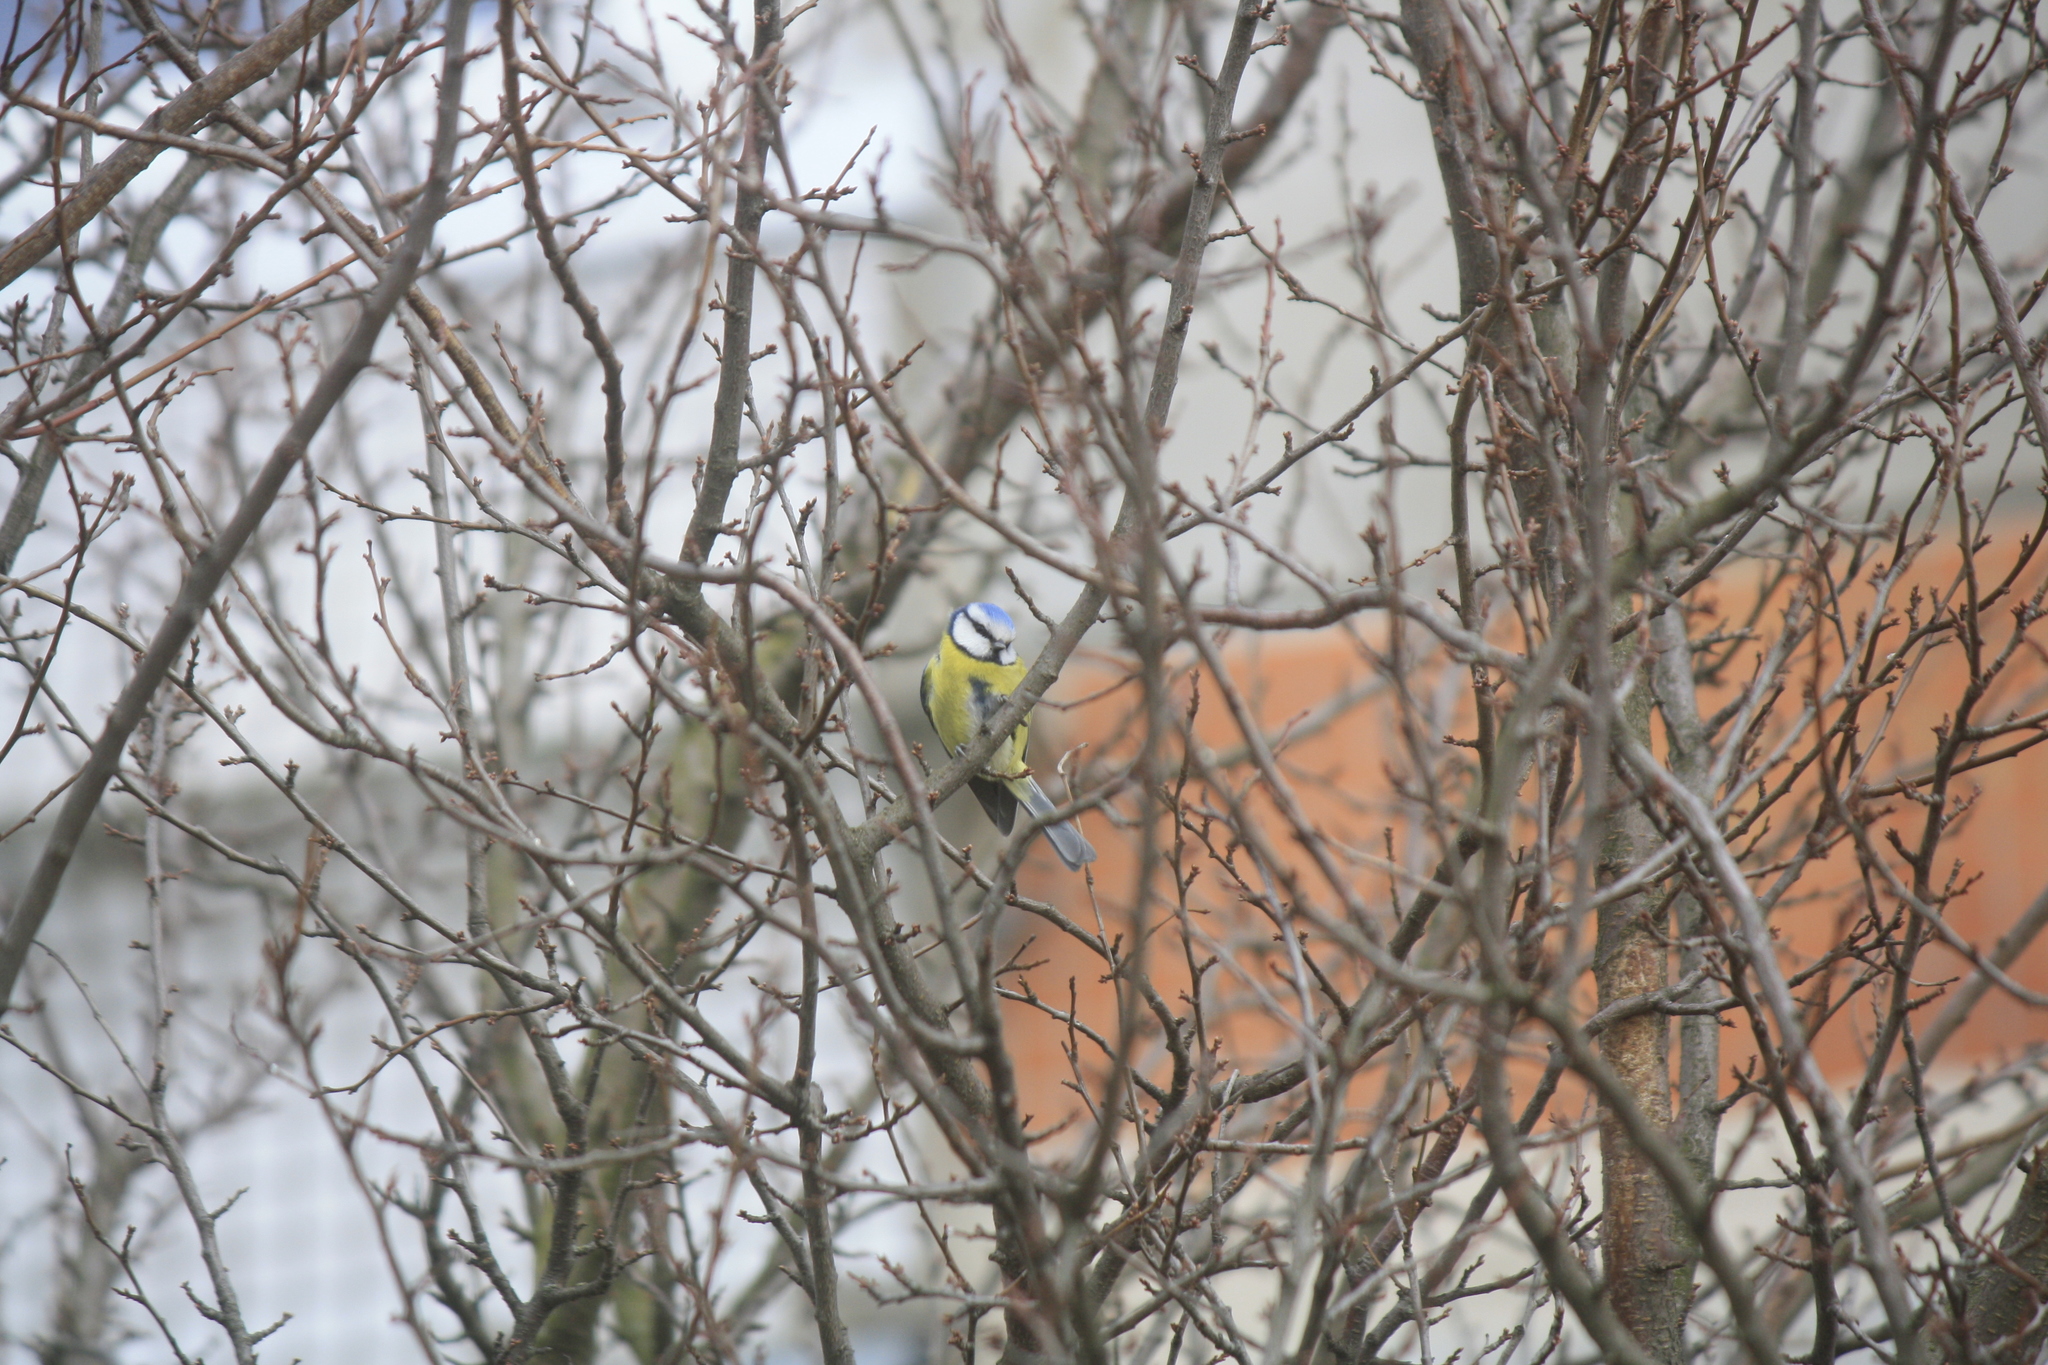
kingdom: Animalia
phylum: Chordata
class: Aves
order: Passeriformes
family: Paridae
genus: Cyanistes
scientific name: Cyanistes caeruleus
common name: Eurasian blue tit
